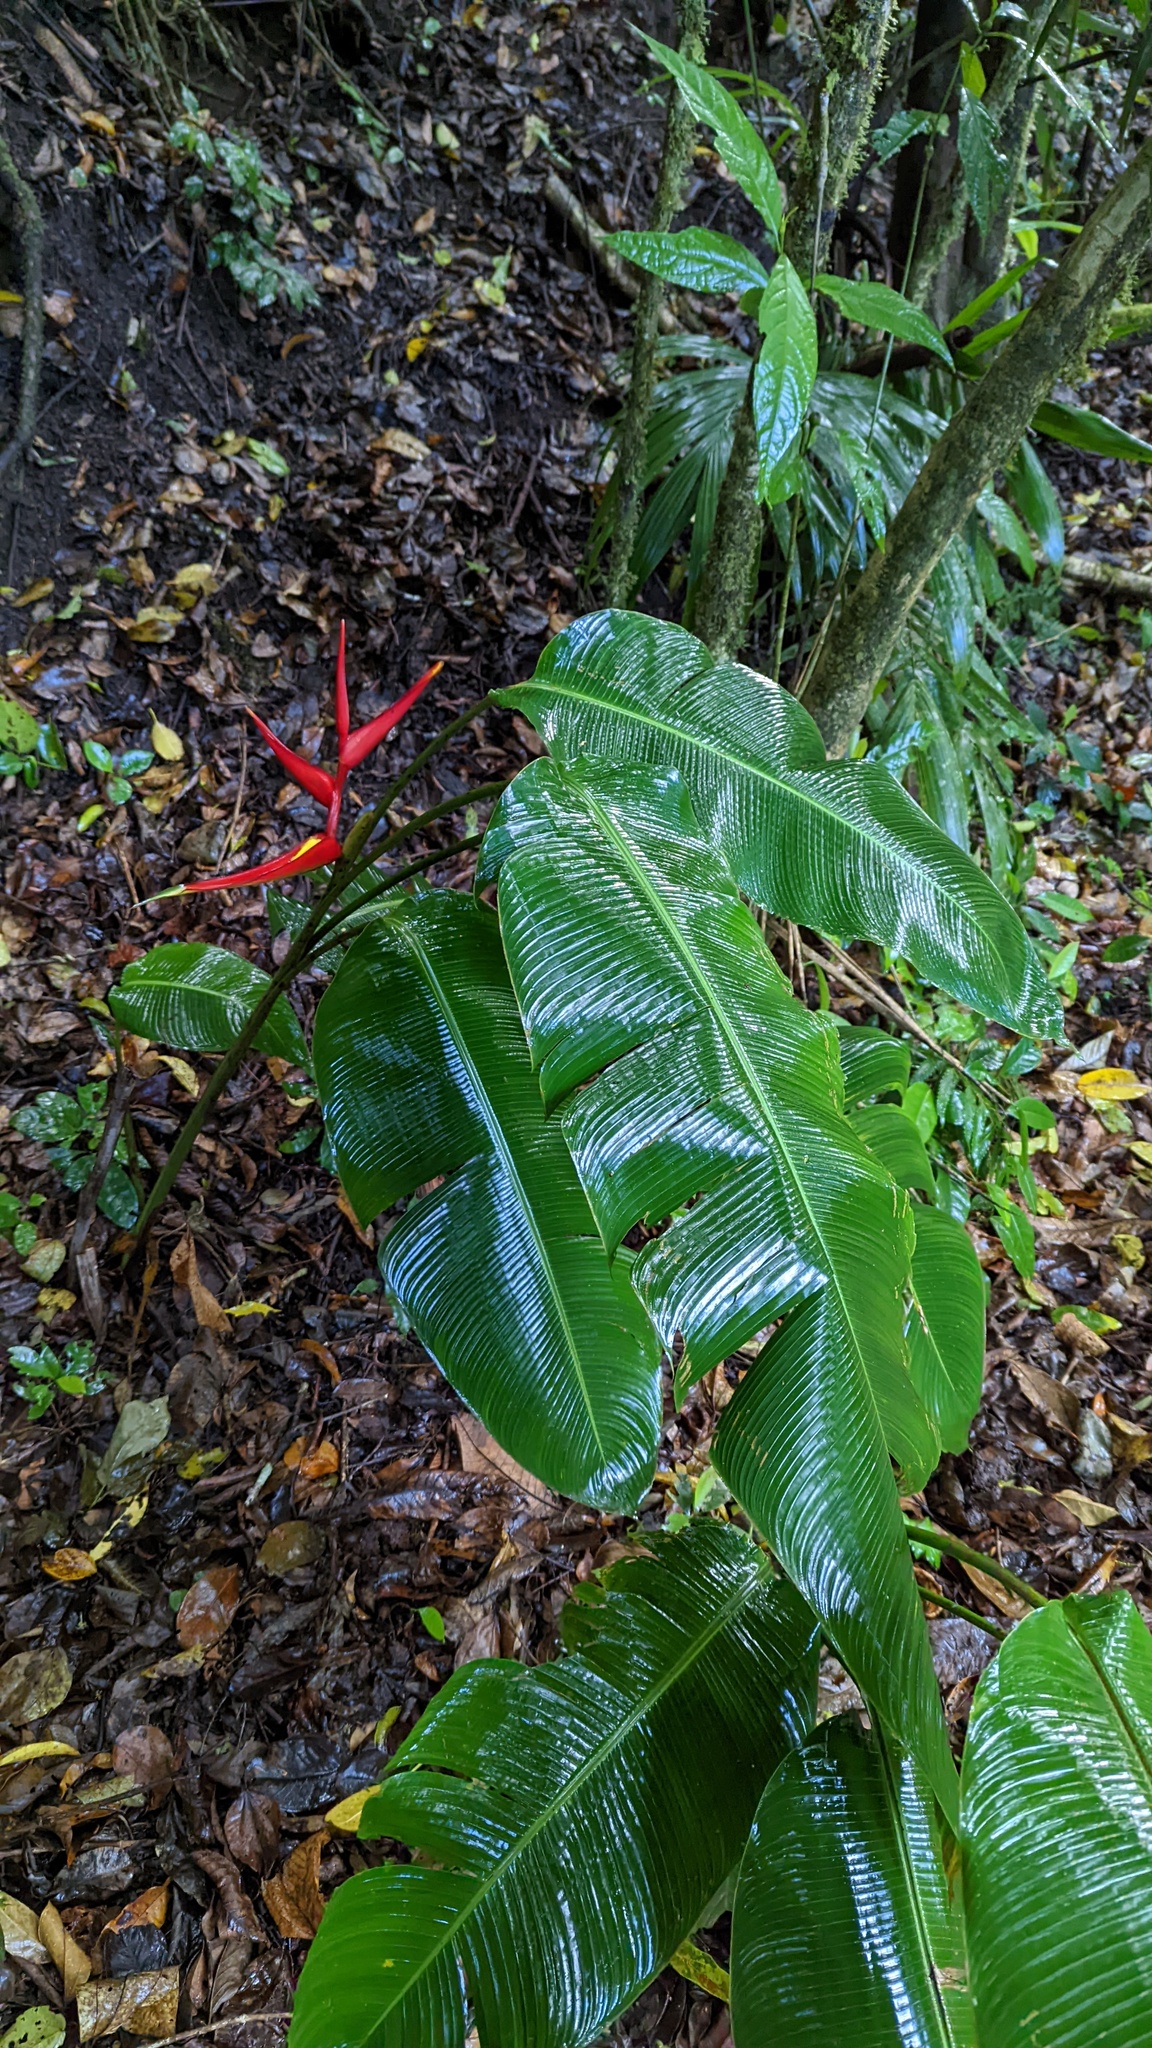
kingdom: Plantae
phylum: Tracheophyta
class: Liliopsida
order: Zingiberales
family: Heliconiaceae
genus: Heliconia
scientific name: Heliconia monteverdensis
